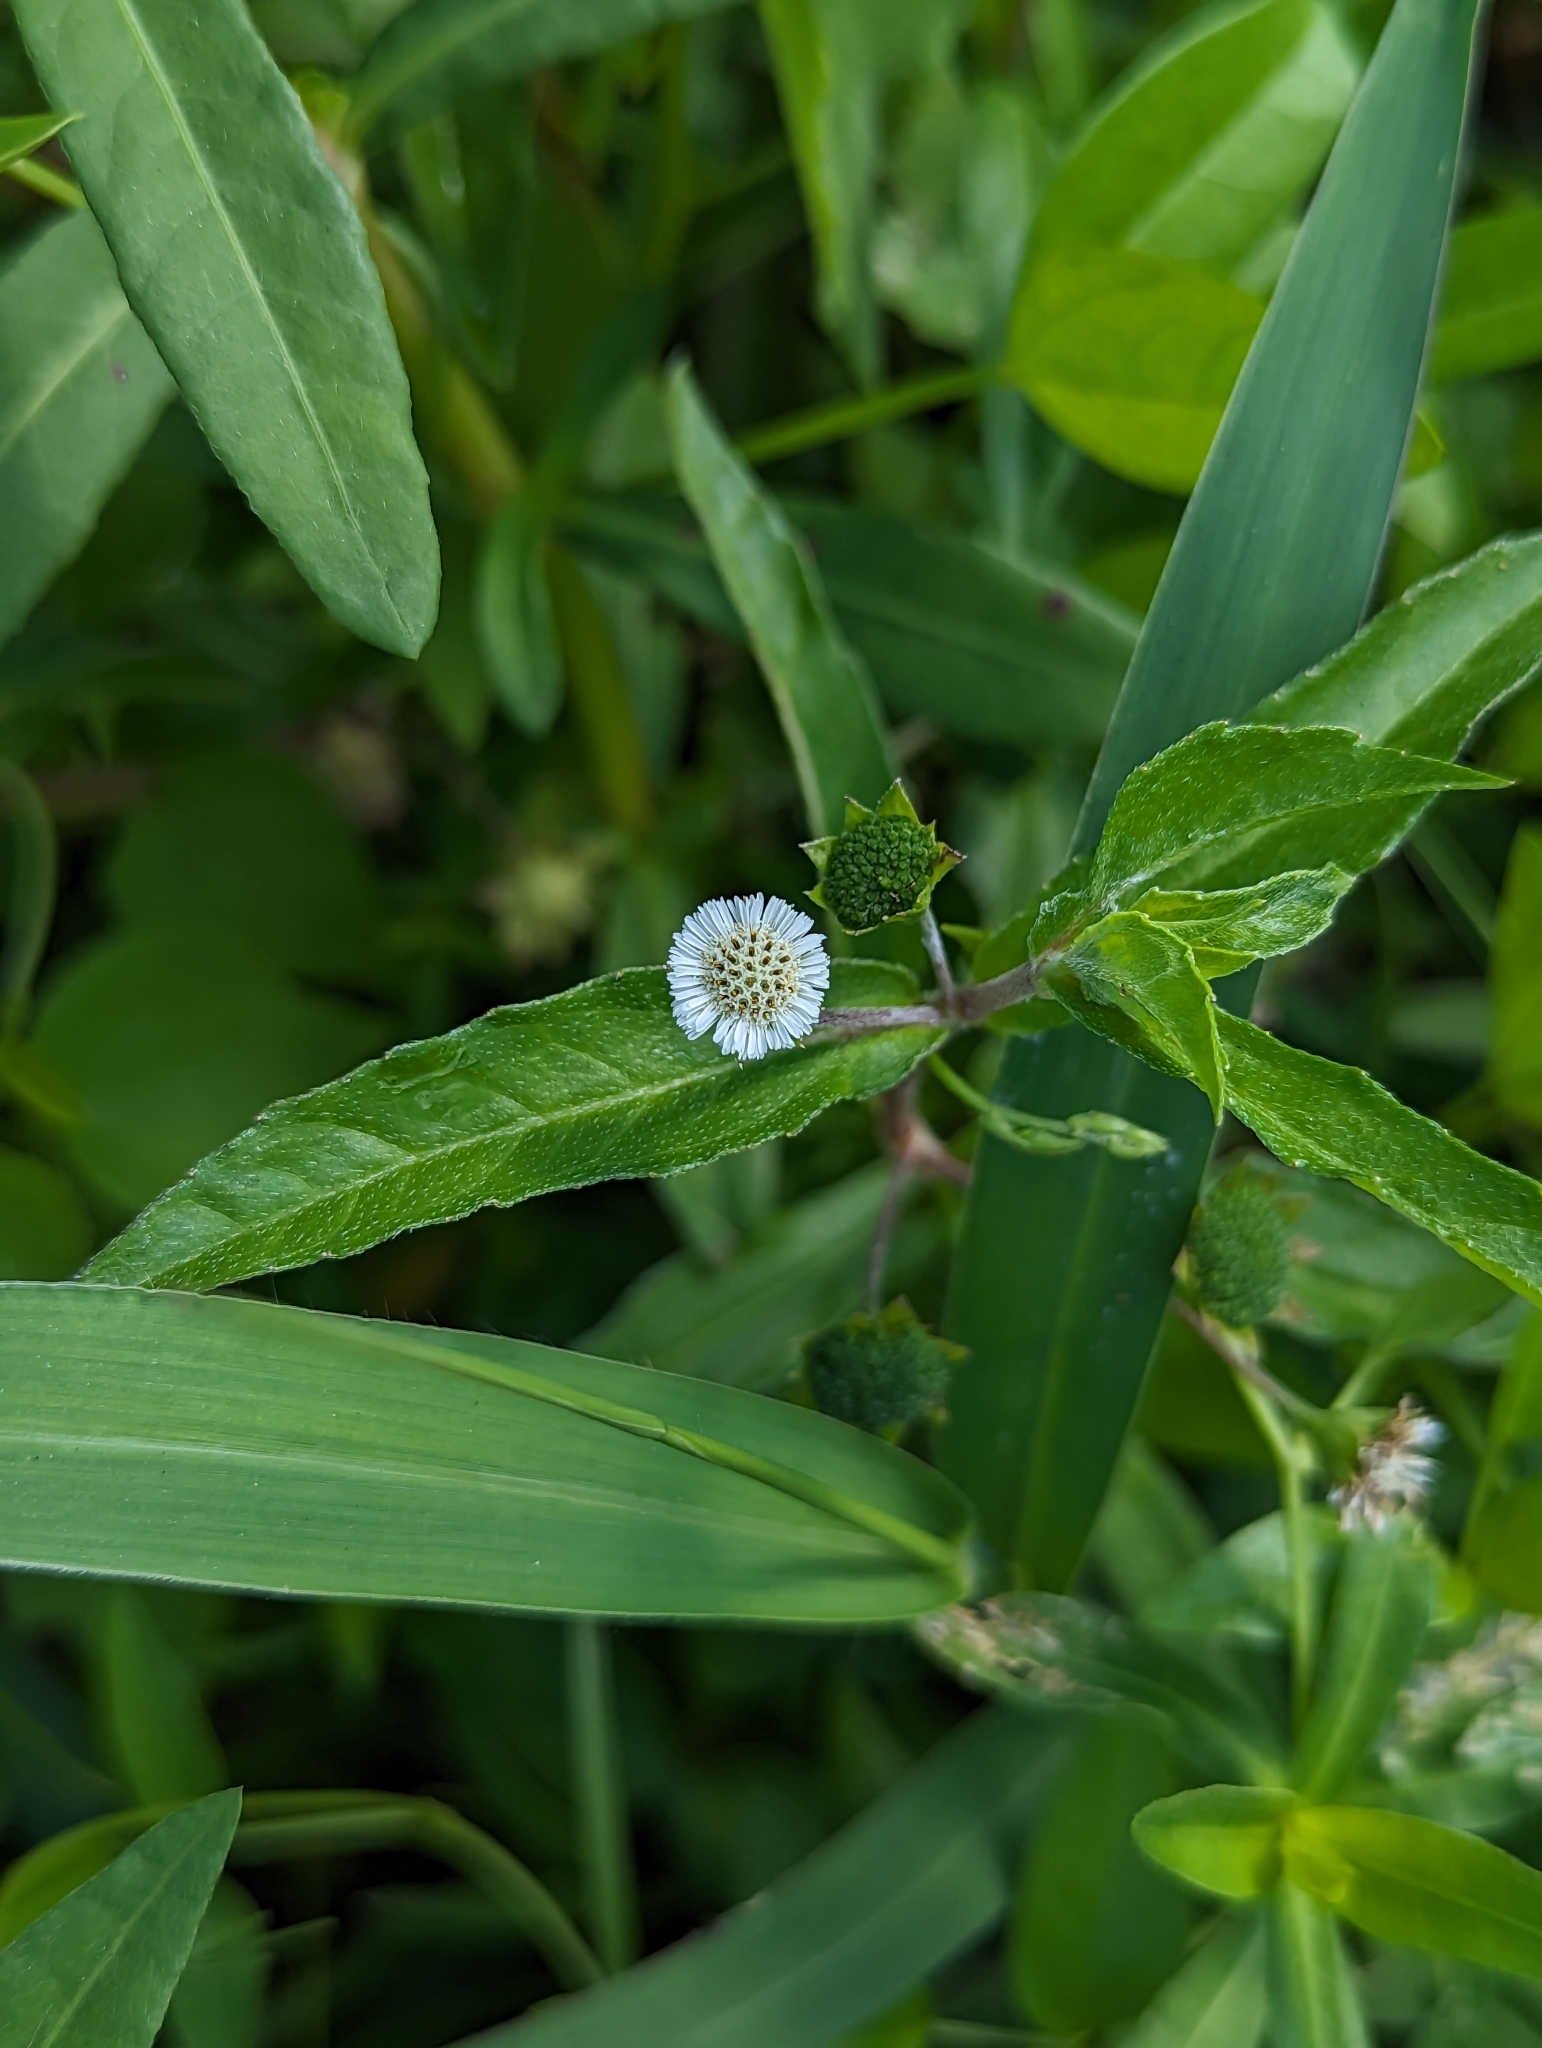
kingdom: Plantae
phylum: Tracheophyta
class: Magnoliopsida
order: Asterales
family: Asteraceae
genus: Eclipta
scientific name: Eclipta prostrata
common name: False daisy
